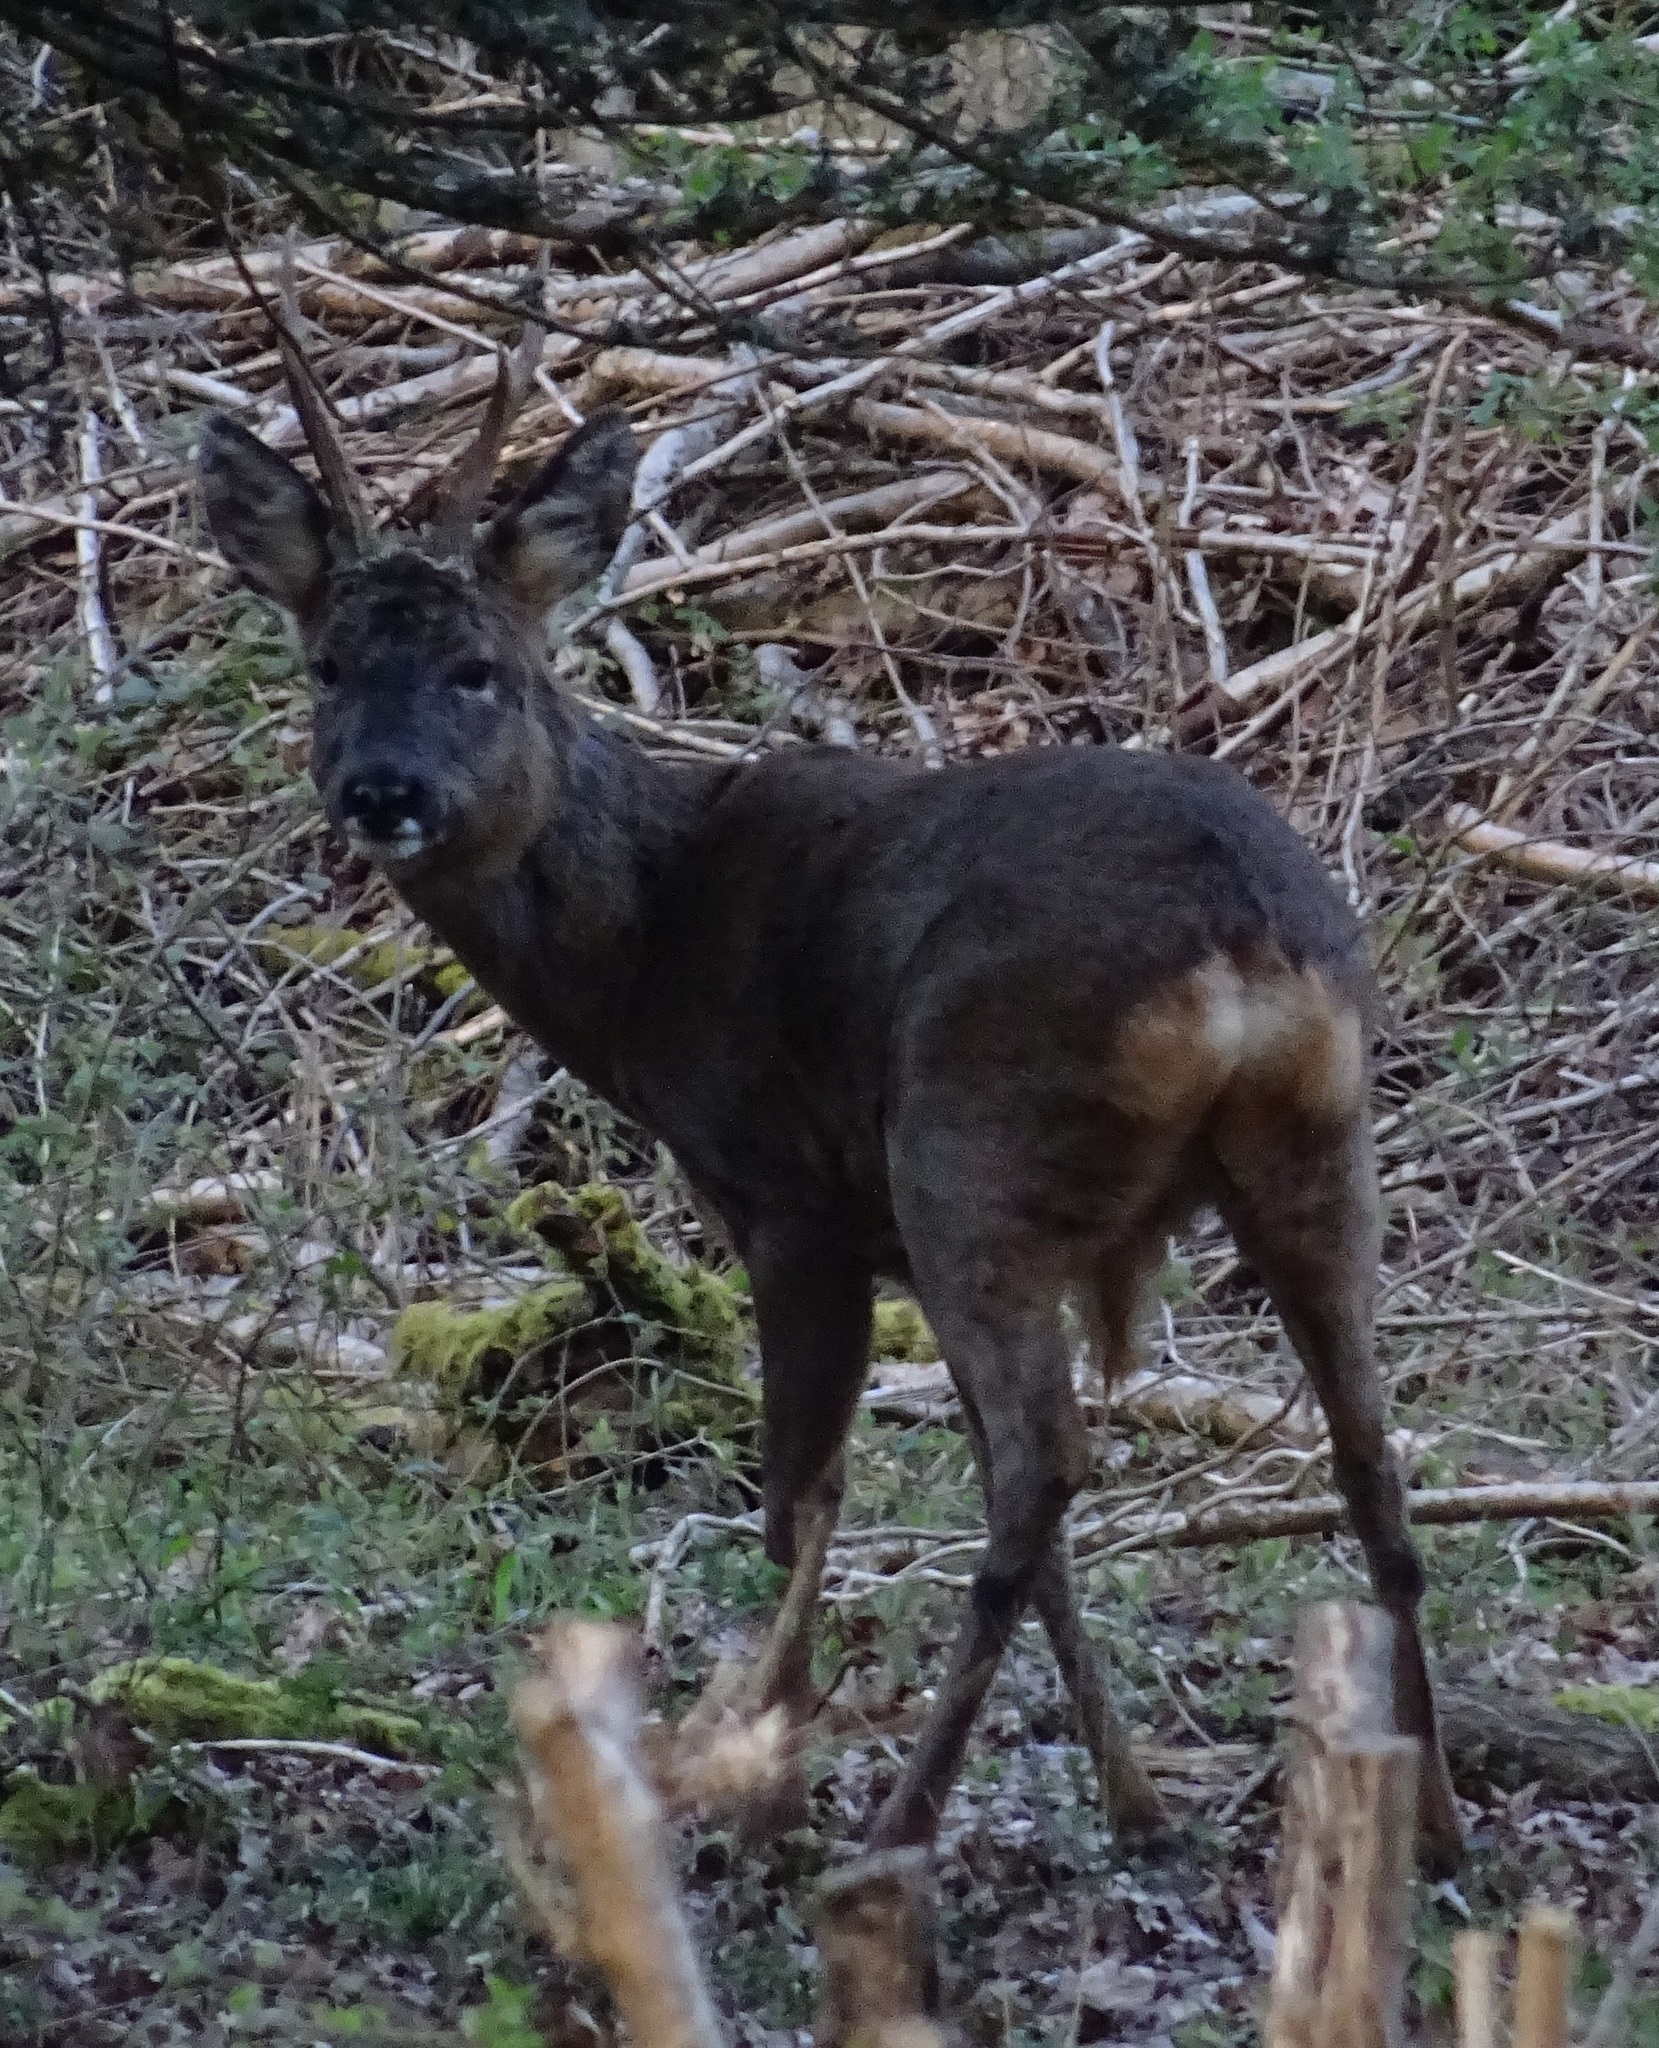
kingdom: Animalia
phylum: Chordata
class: Mammalia
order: Artiodactyla
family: Cervidae
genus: Capreolus
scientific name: Capreolus capreolus
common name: Western roe deer
